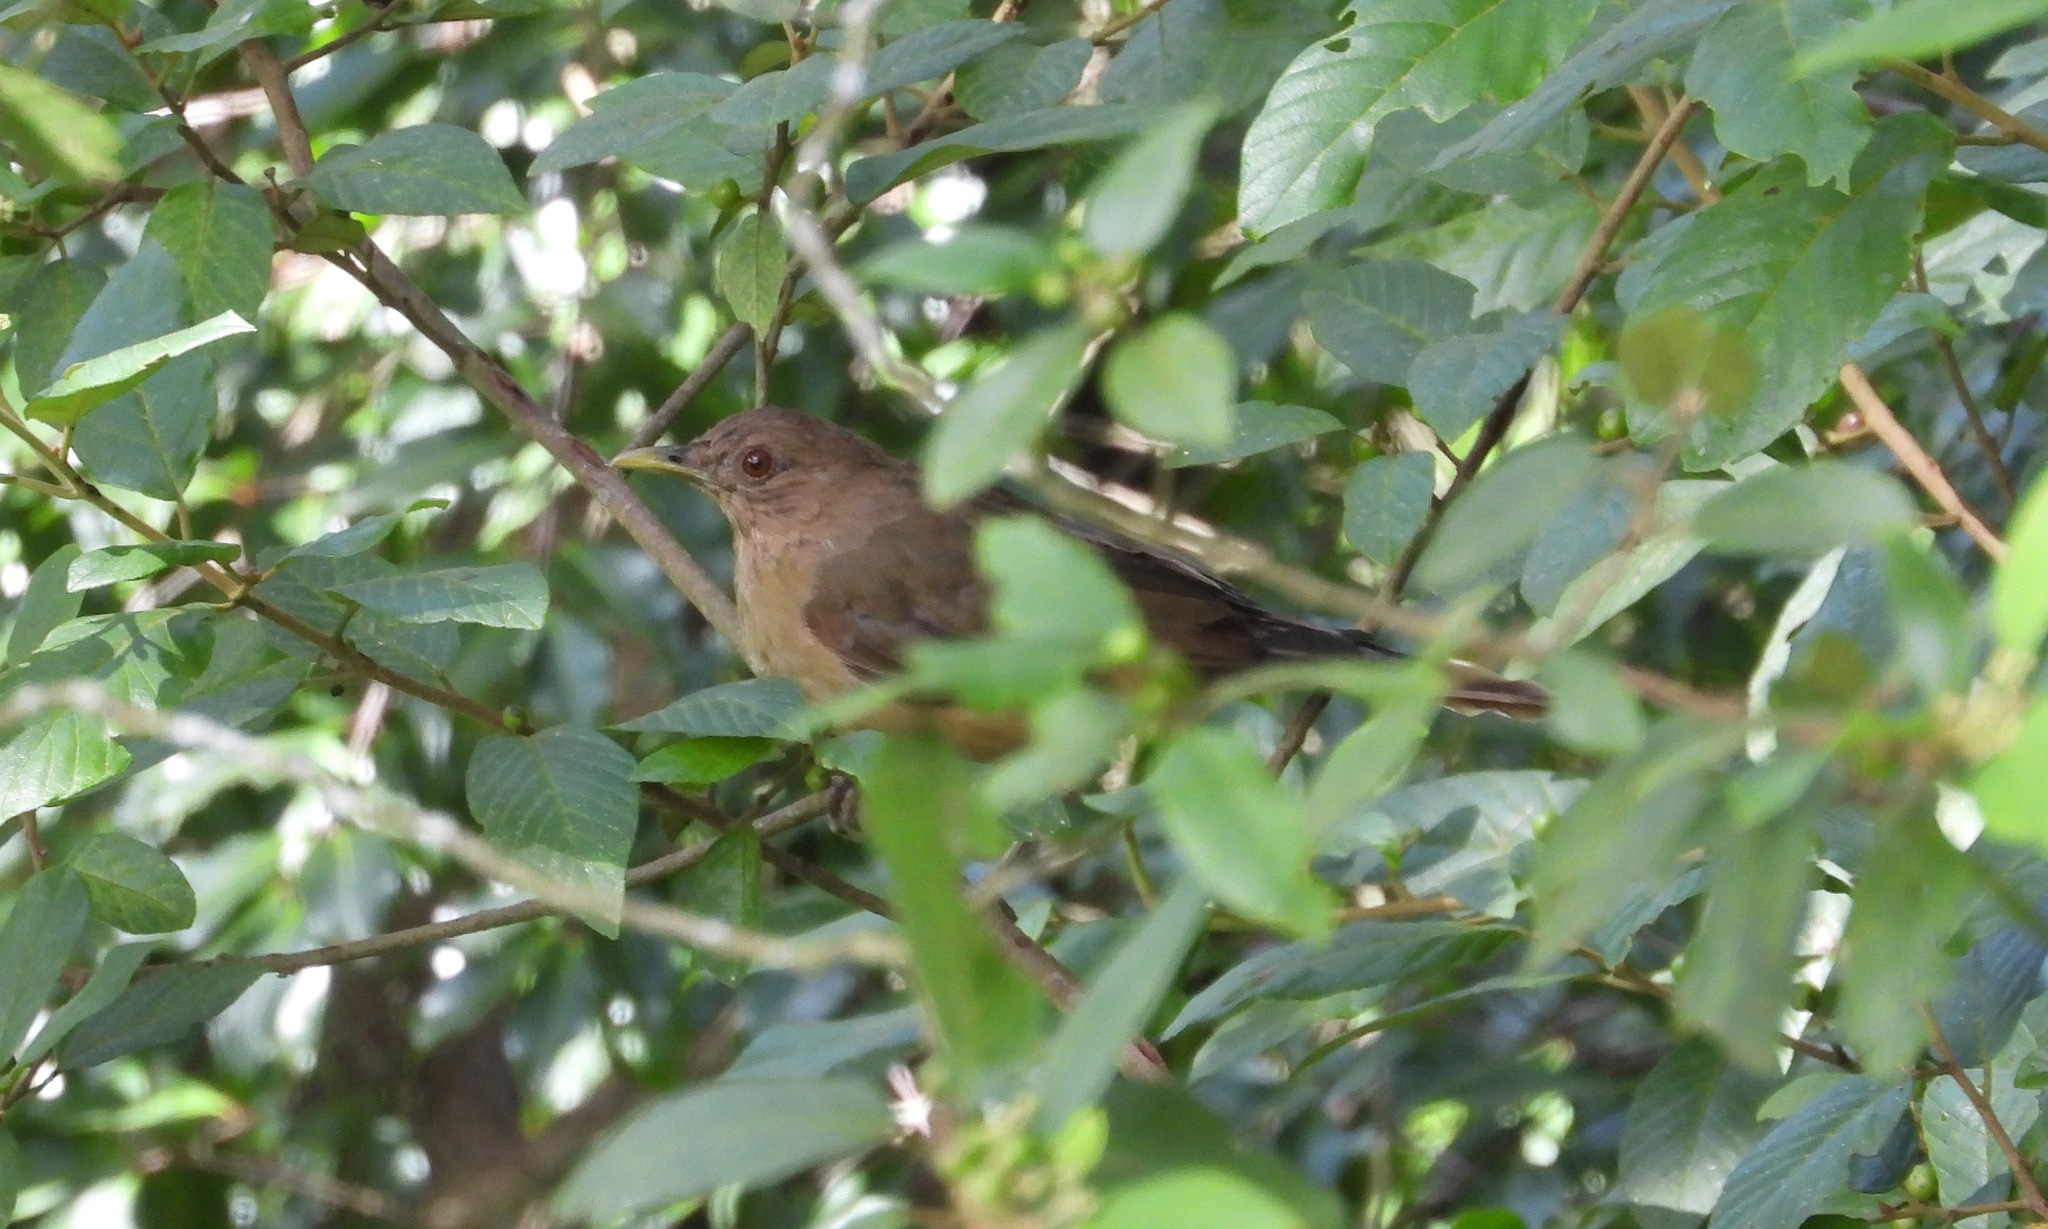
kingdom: Animalia
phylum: Chordata
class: Aves
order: Passeriformes
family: Turdidae
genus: Turdus
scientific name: Turdus grayi
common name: Clay-colored thrush
